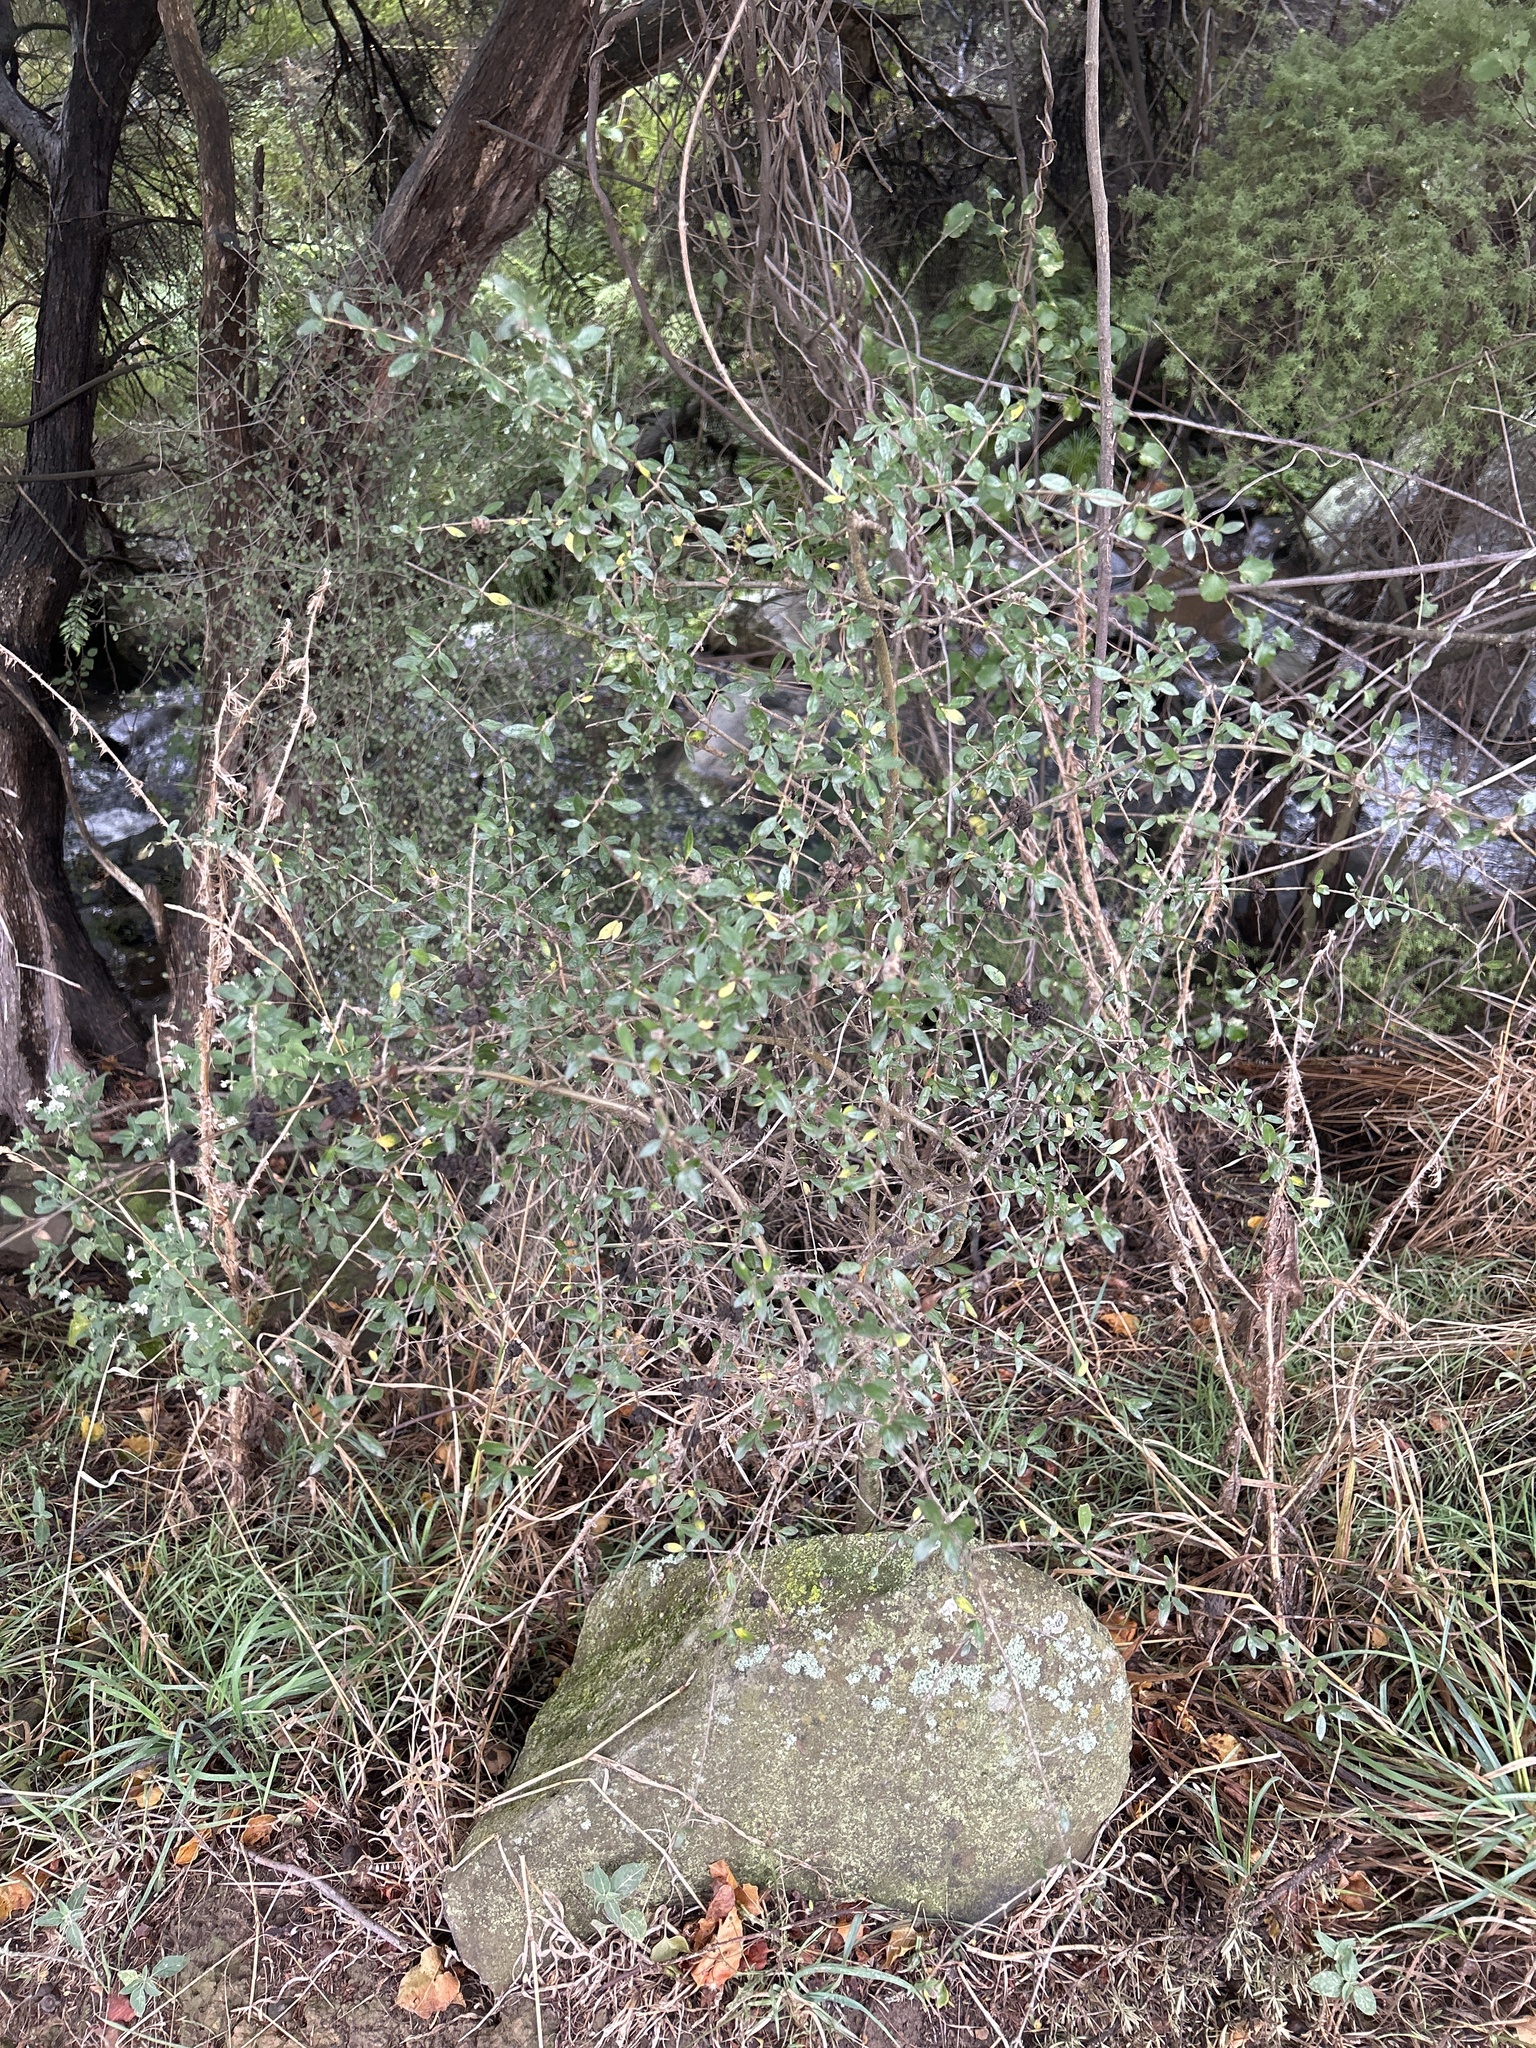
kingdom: Plantae
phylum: Tracheophyta
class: Magnoliopsida
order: Gentianales
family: Rubiaceae
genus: Coprosma
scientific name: Coprosma propinqua
